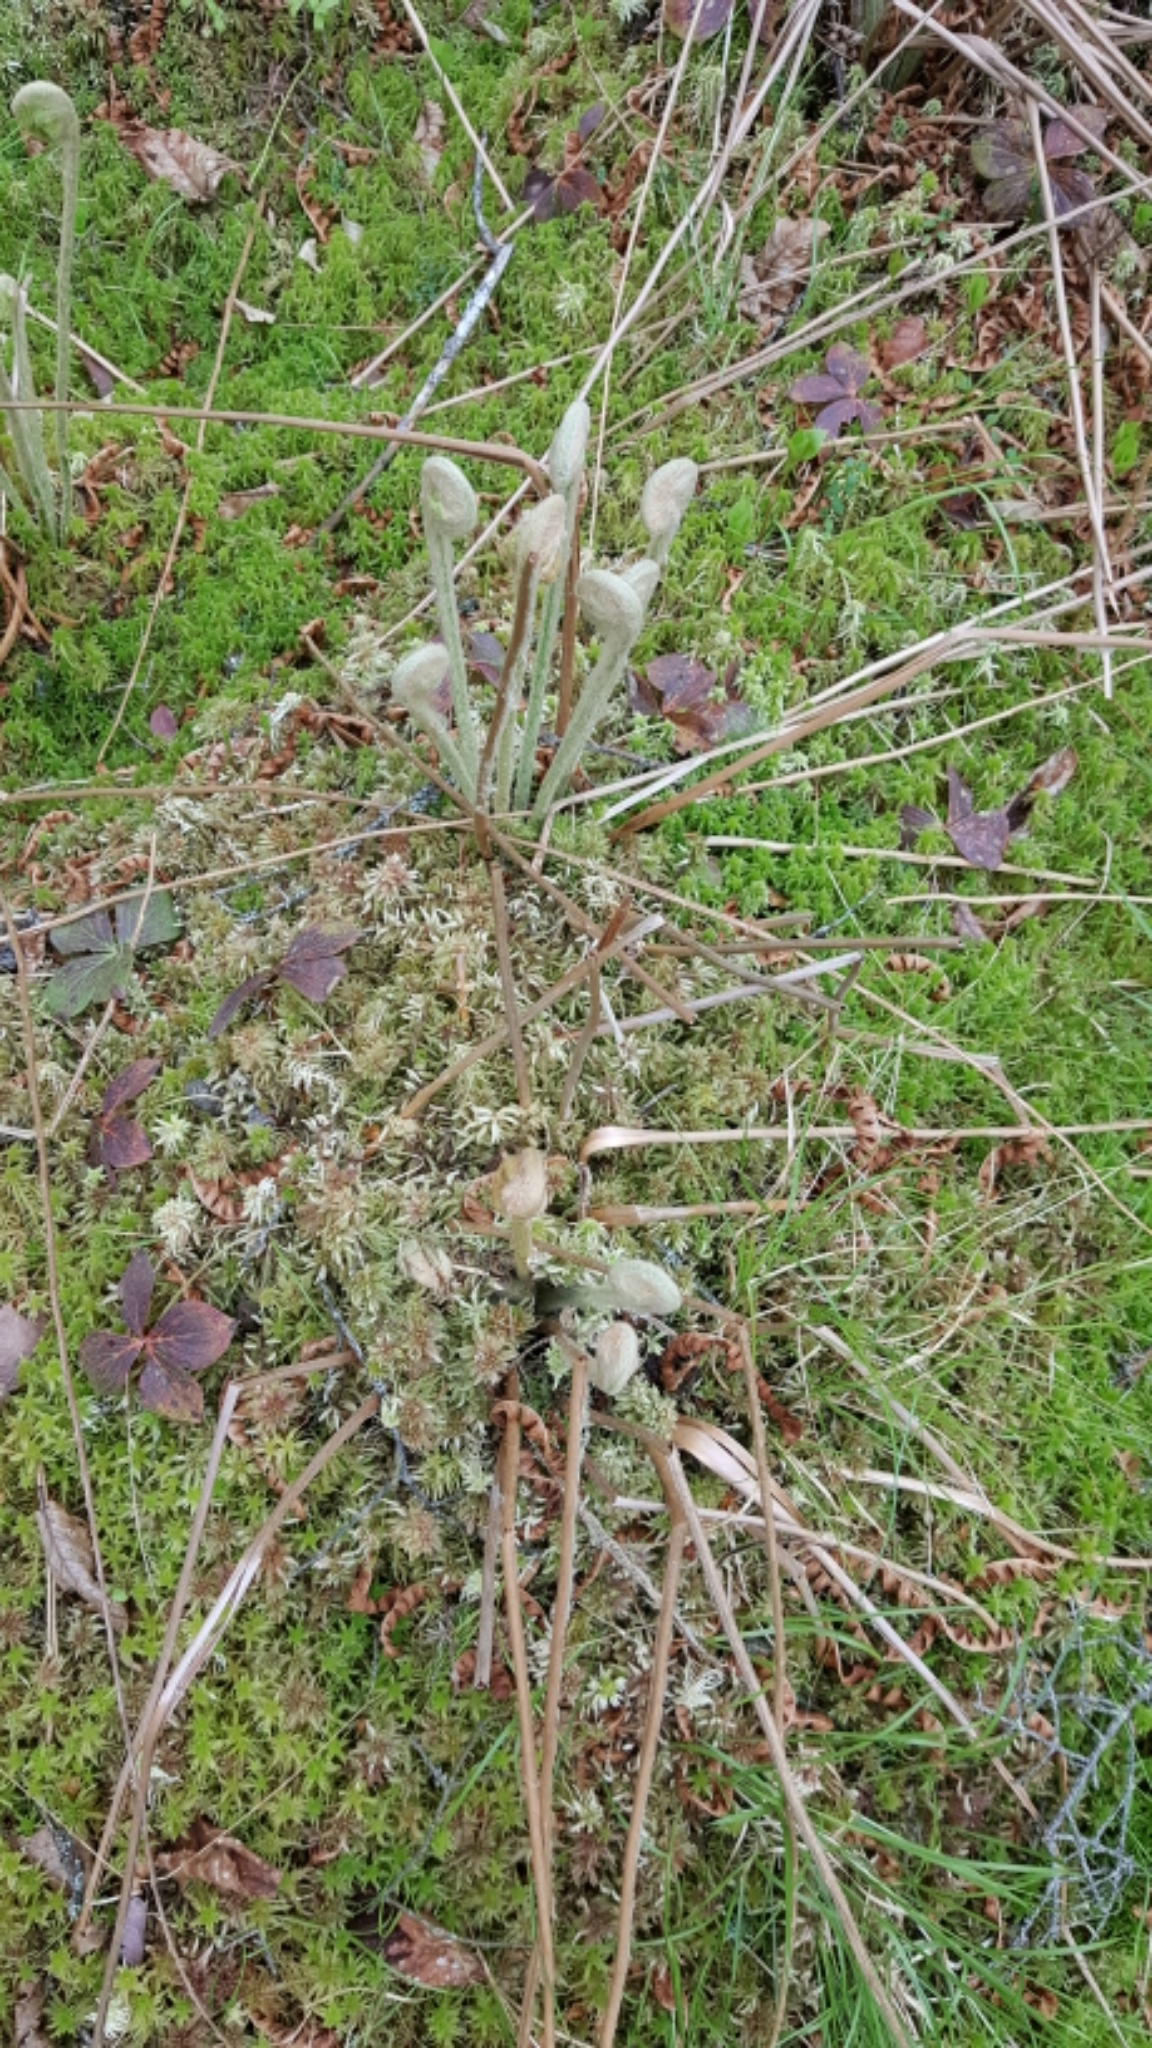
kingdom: Plantae
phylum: Tracheophyta
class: Polypodiopsida
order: Osmundales
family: Osmundaceae
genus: Osmundastrum
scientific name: Osmundastrum cinnamomeum
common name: Cinnamon fern
